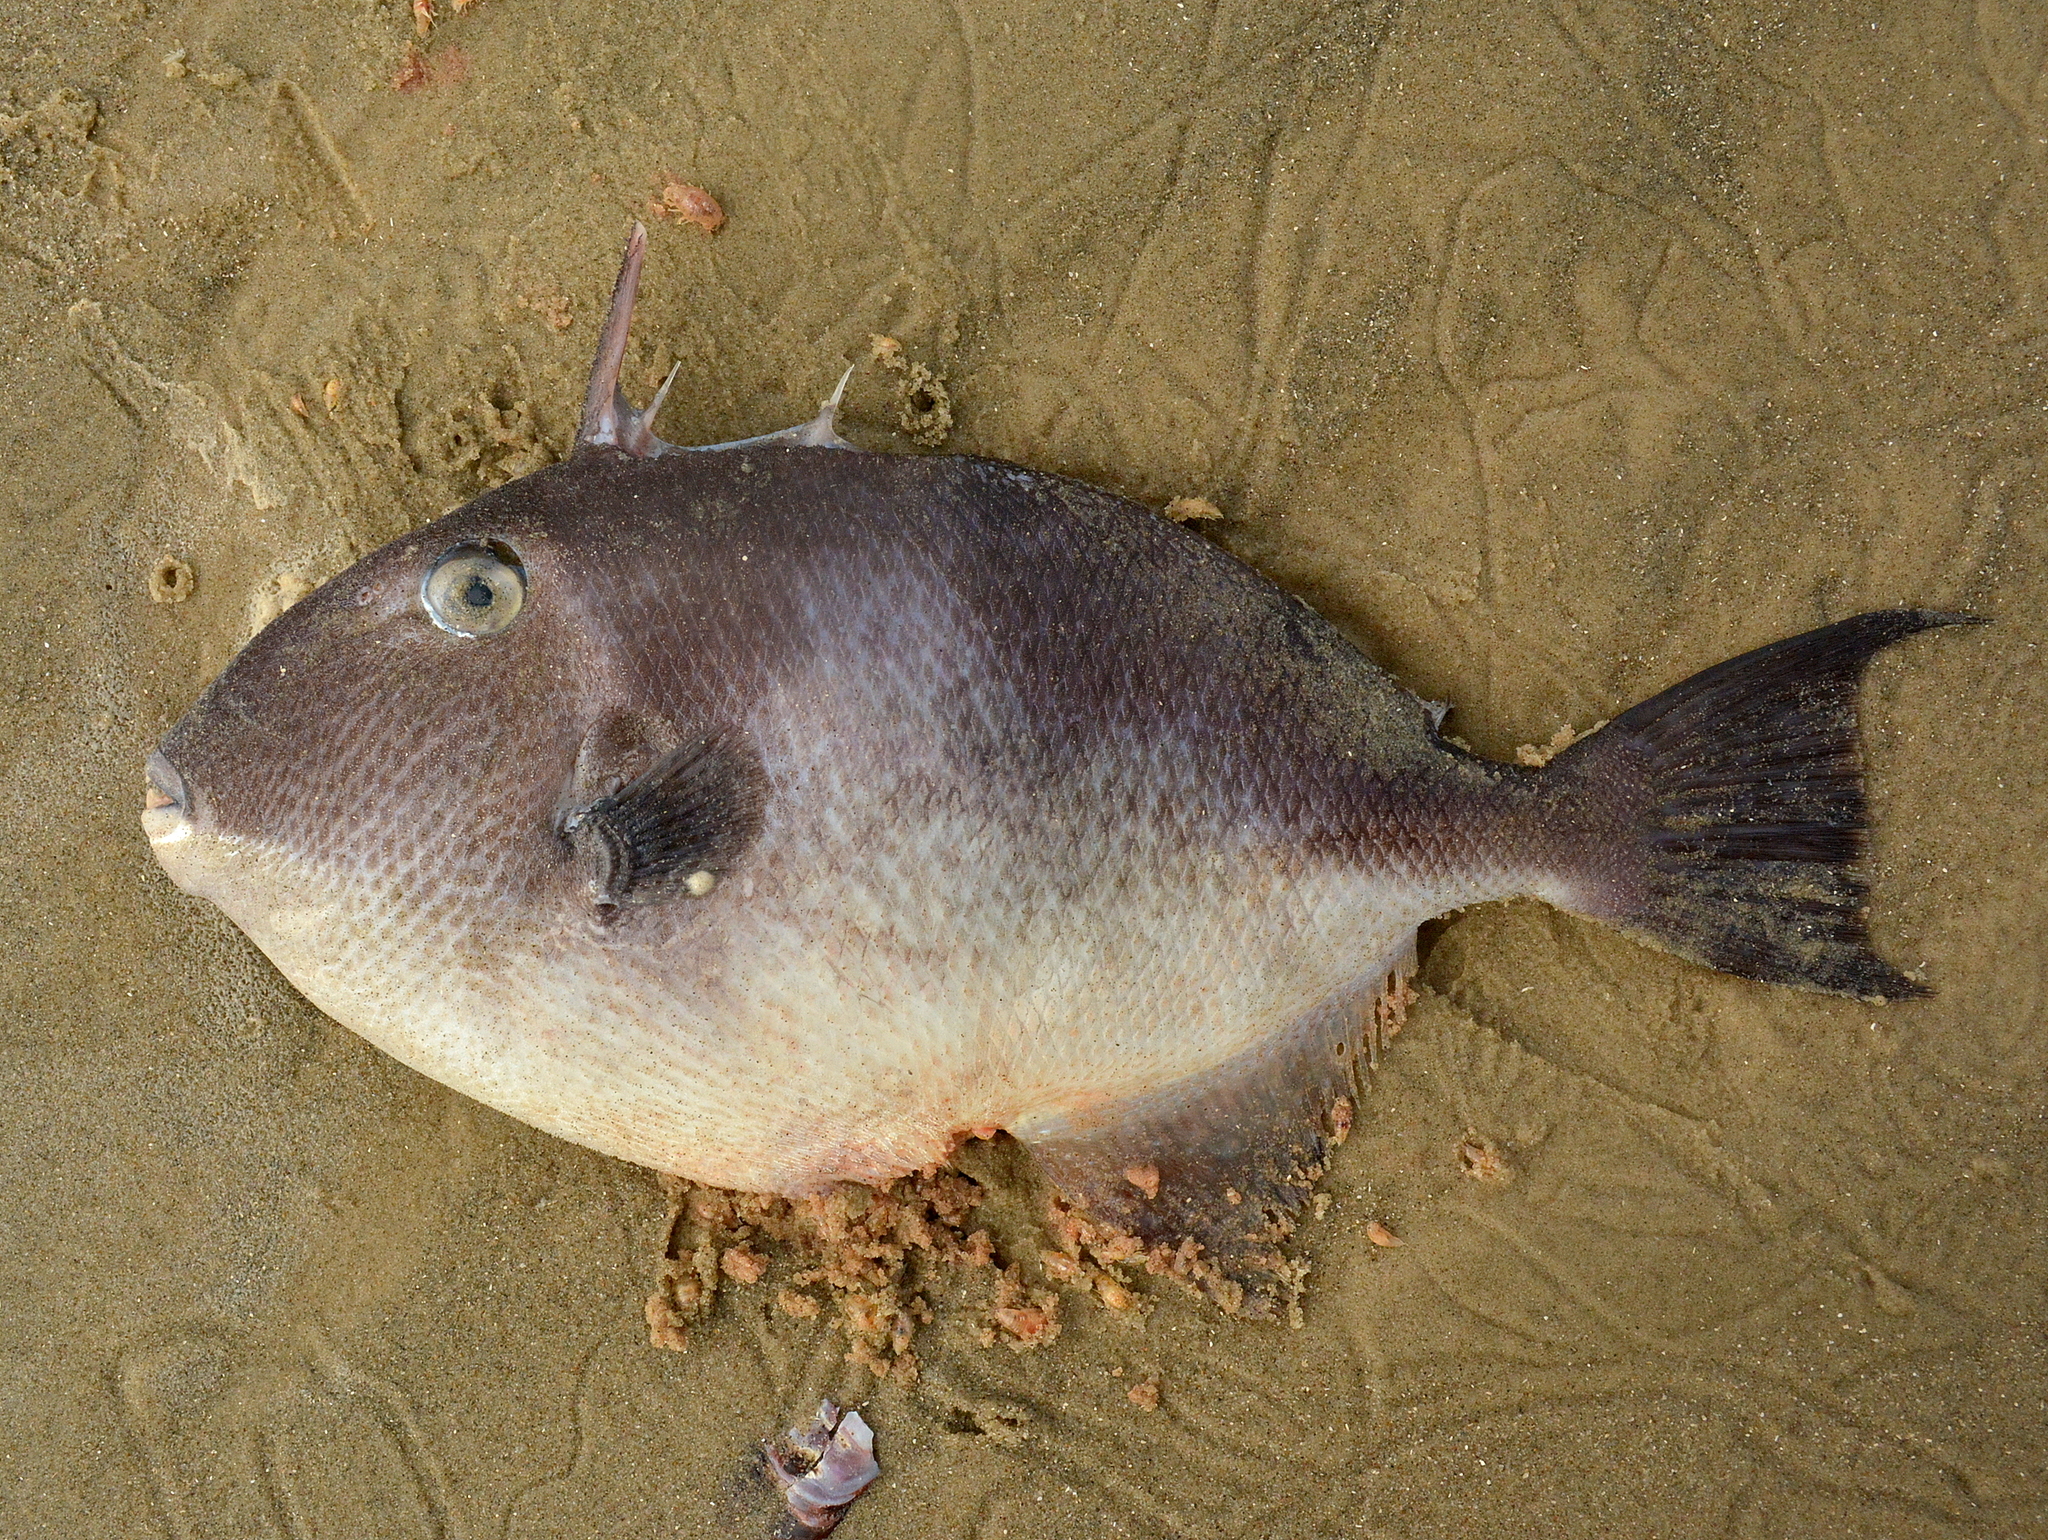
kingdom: Animalia
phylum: Chordata
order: Tetraodontiformes
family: Balistidae
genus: Balistes
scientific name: Balistes capriscus
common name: Grey triggerfish
